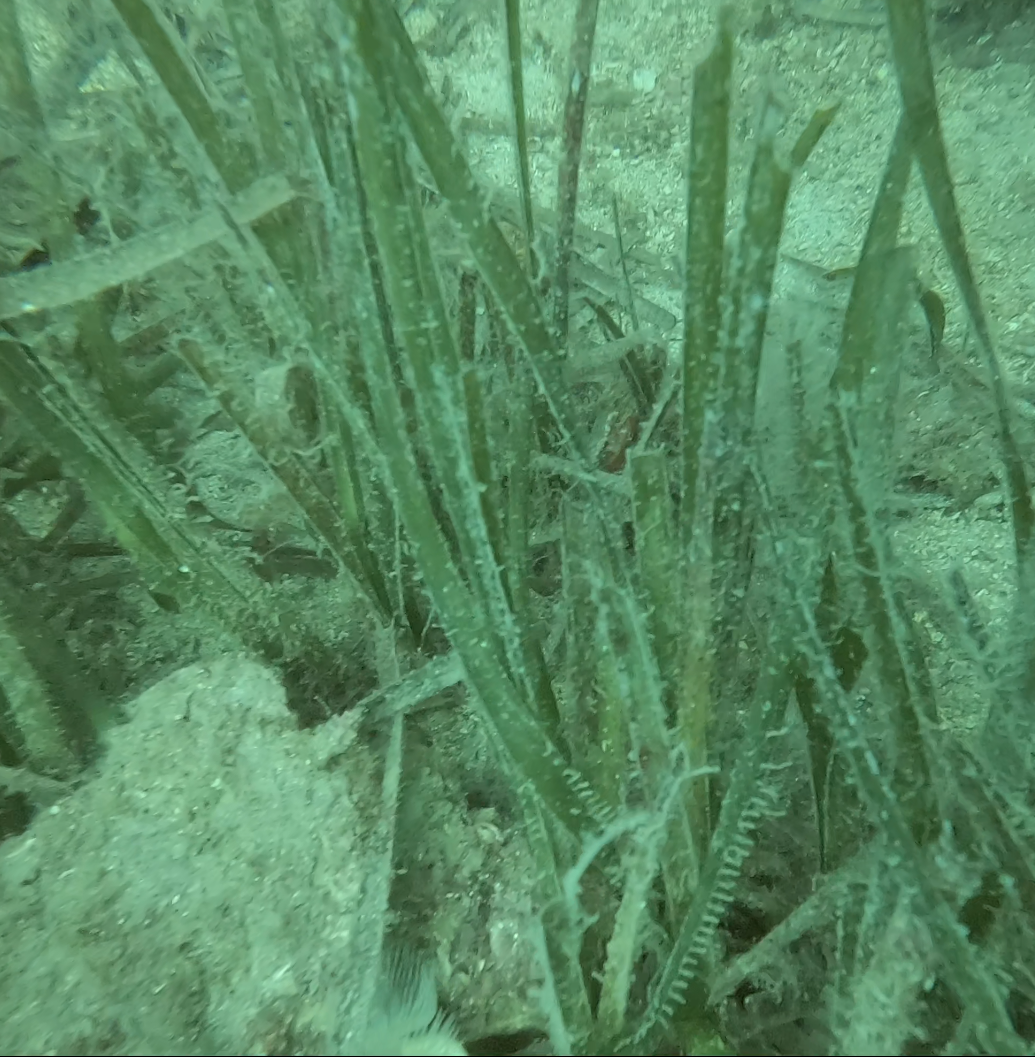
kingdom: Plantae
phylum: Tracheophyta
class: Liliopsida
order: Alismatales
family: Posidoniaceae
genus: Posidonia
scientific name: Posidonia oceanica
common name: Mediterranean tapeweed
